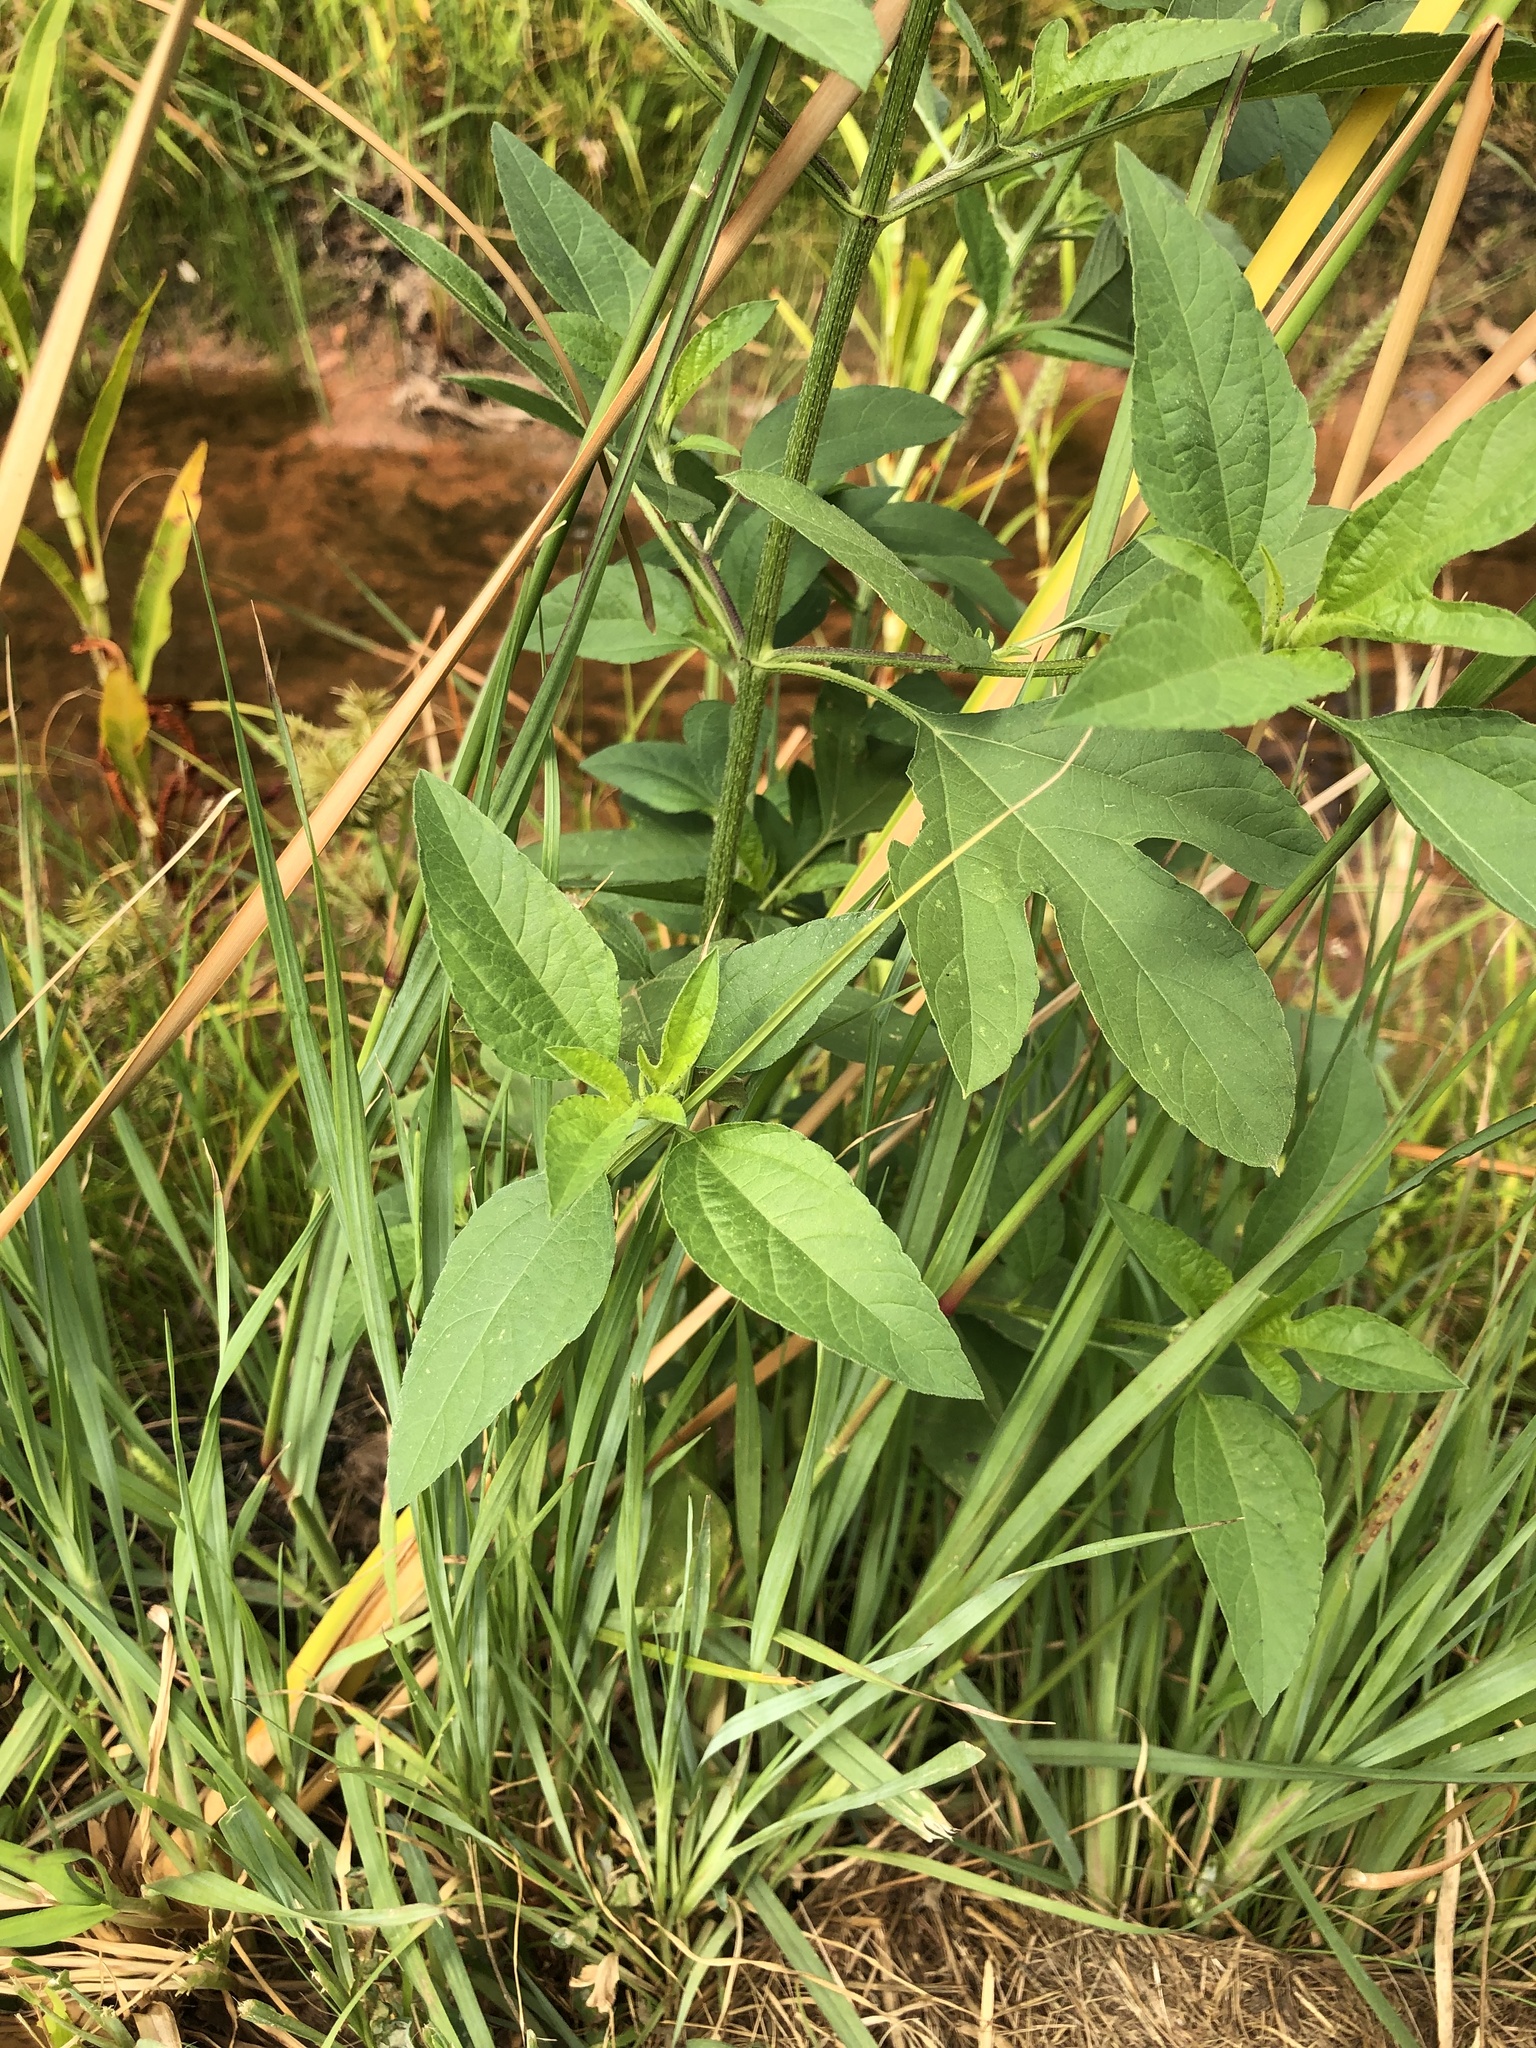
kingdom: Plantae
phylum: Tracheophyta
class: Magnoliopsida
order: Asterales
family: Asteraceae
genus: Ambrosia
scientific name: Ambrosia trifida
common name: Giant ragweed
